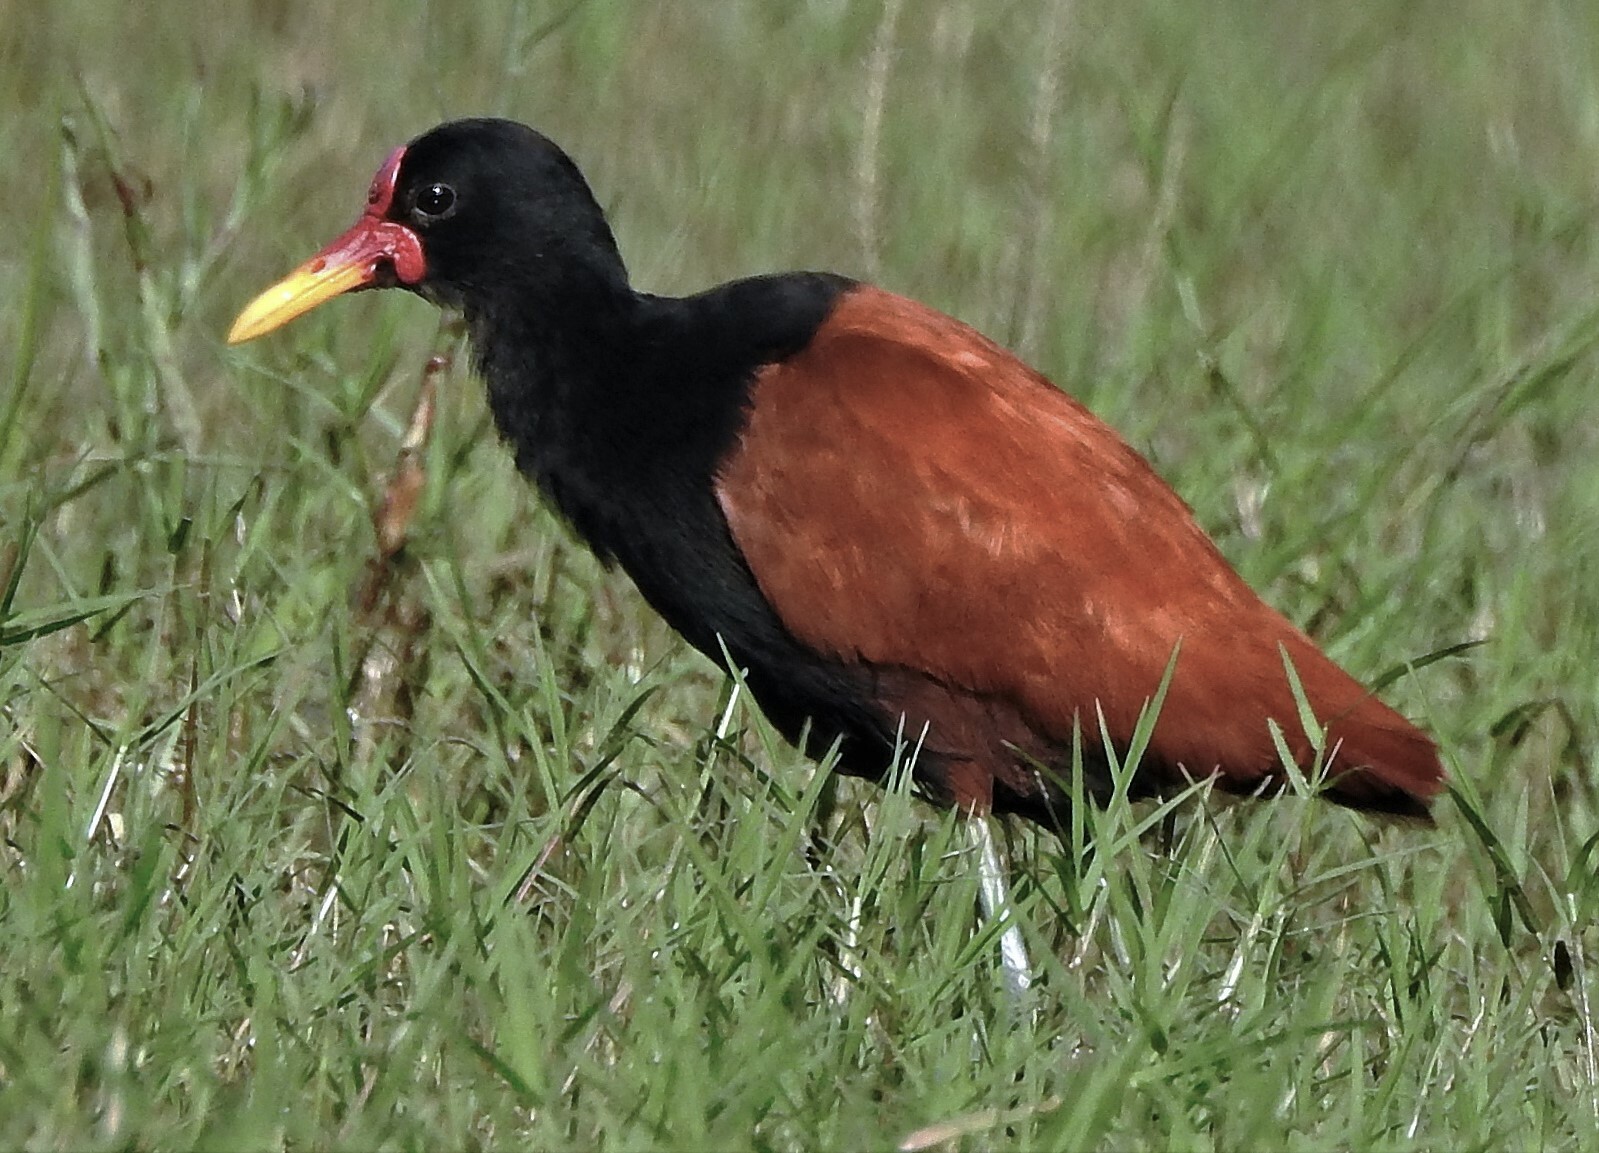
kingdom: Animalia
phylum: Chordata
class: Aves
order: Charadriiformes
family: Jacanidae
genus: Jacana
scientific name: Jacana jacana
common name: Wattled jacana
